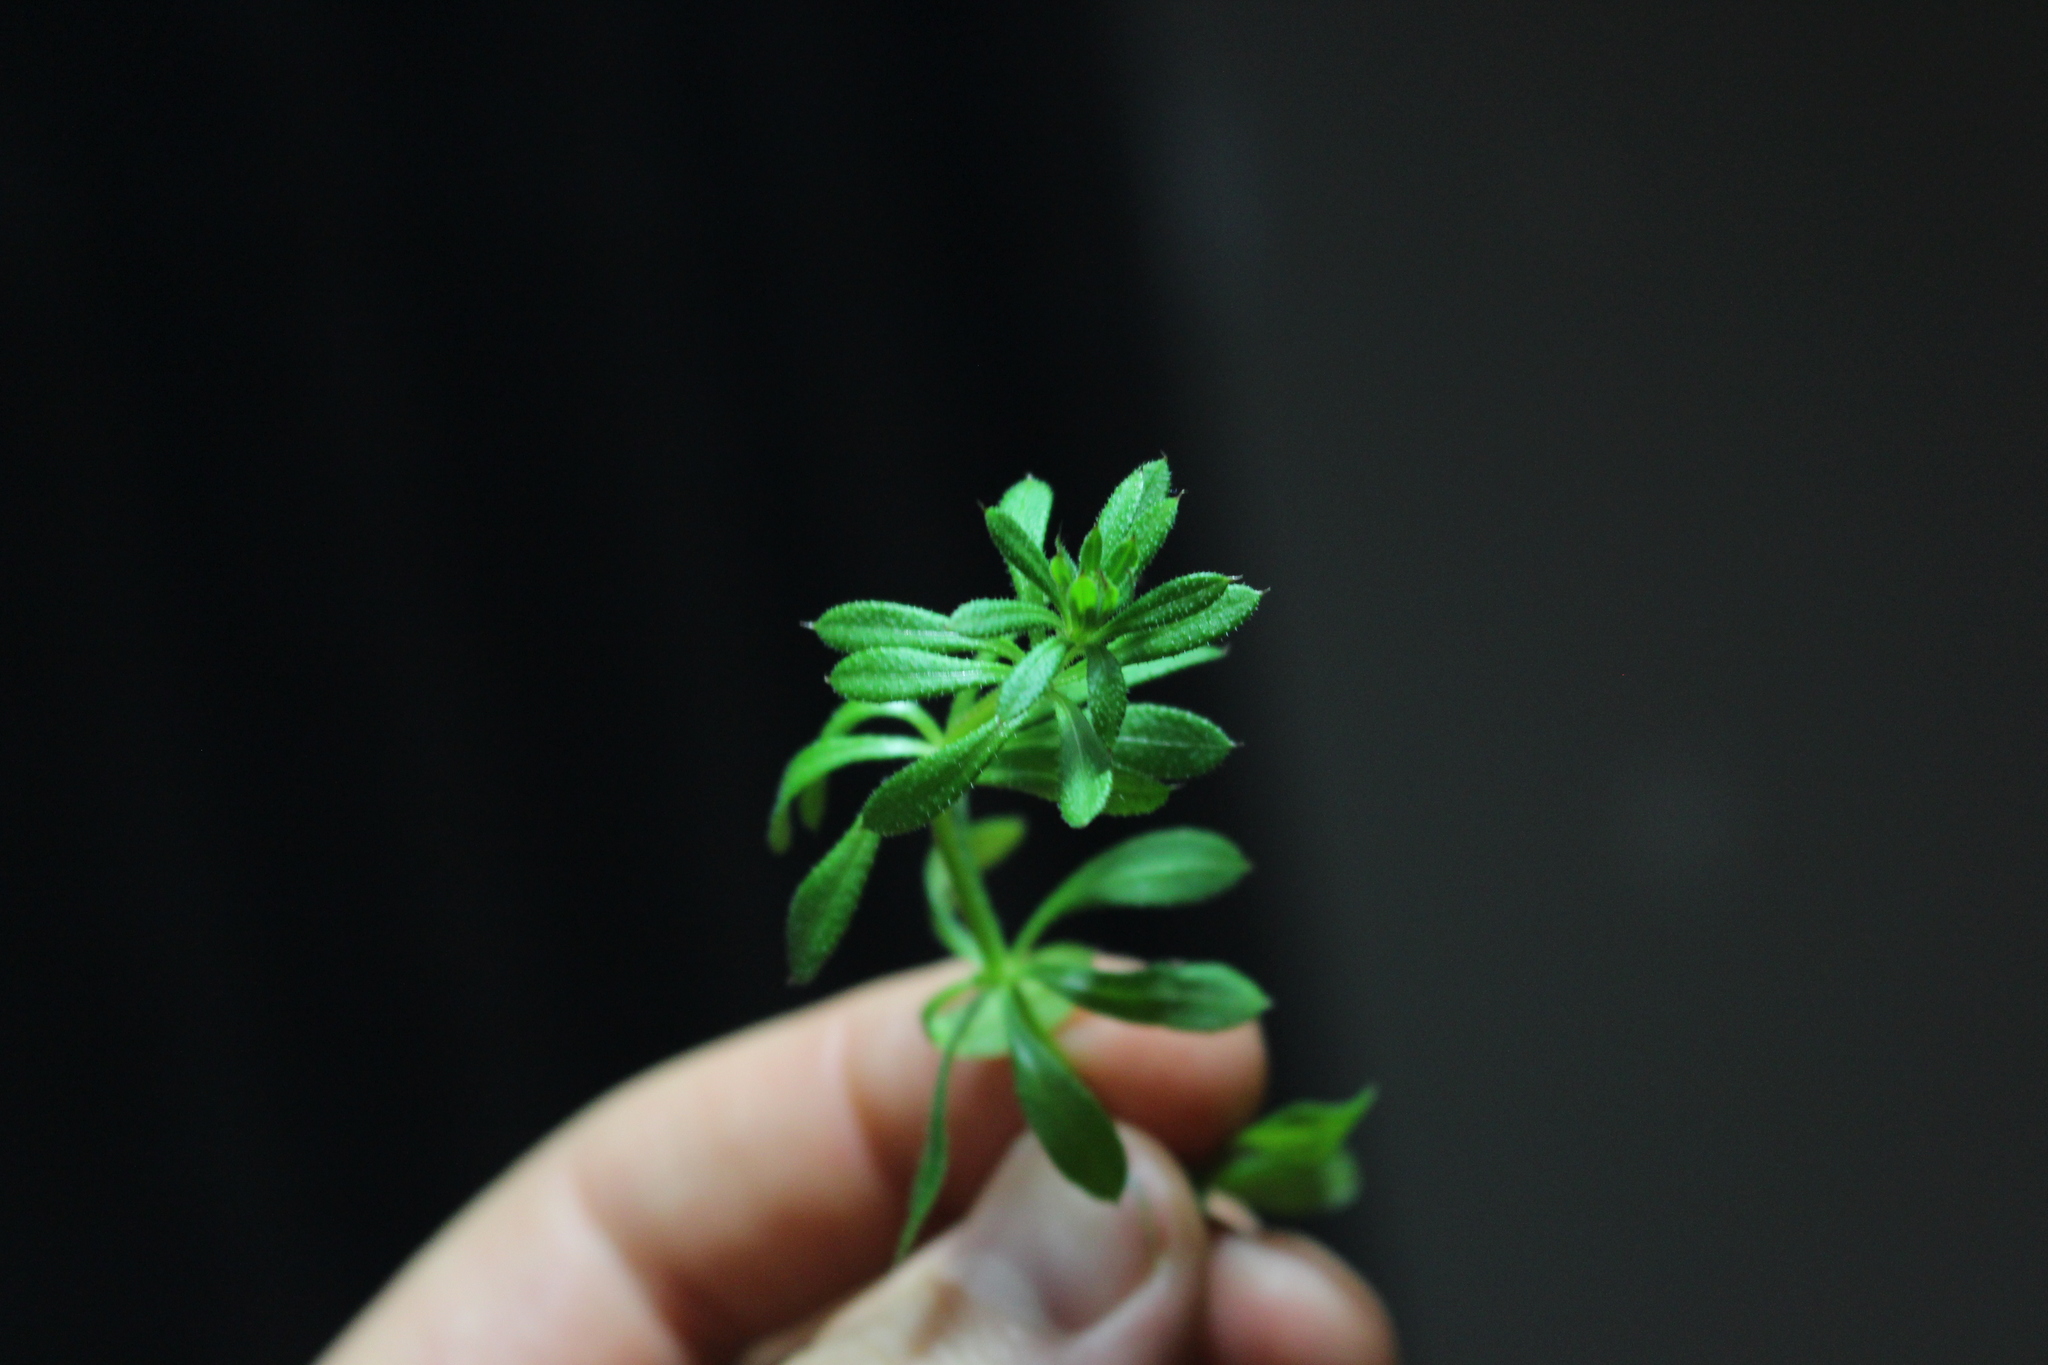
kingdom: Plantae
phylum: Tracheophyta
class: Magnoliopsida
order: Gentianales
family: Rubiaceae
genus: Galium
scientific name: Galium aparine
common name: Cleavers
